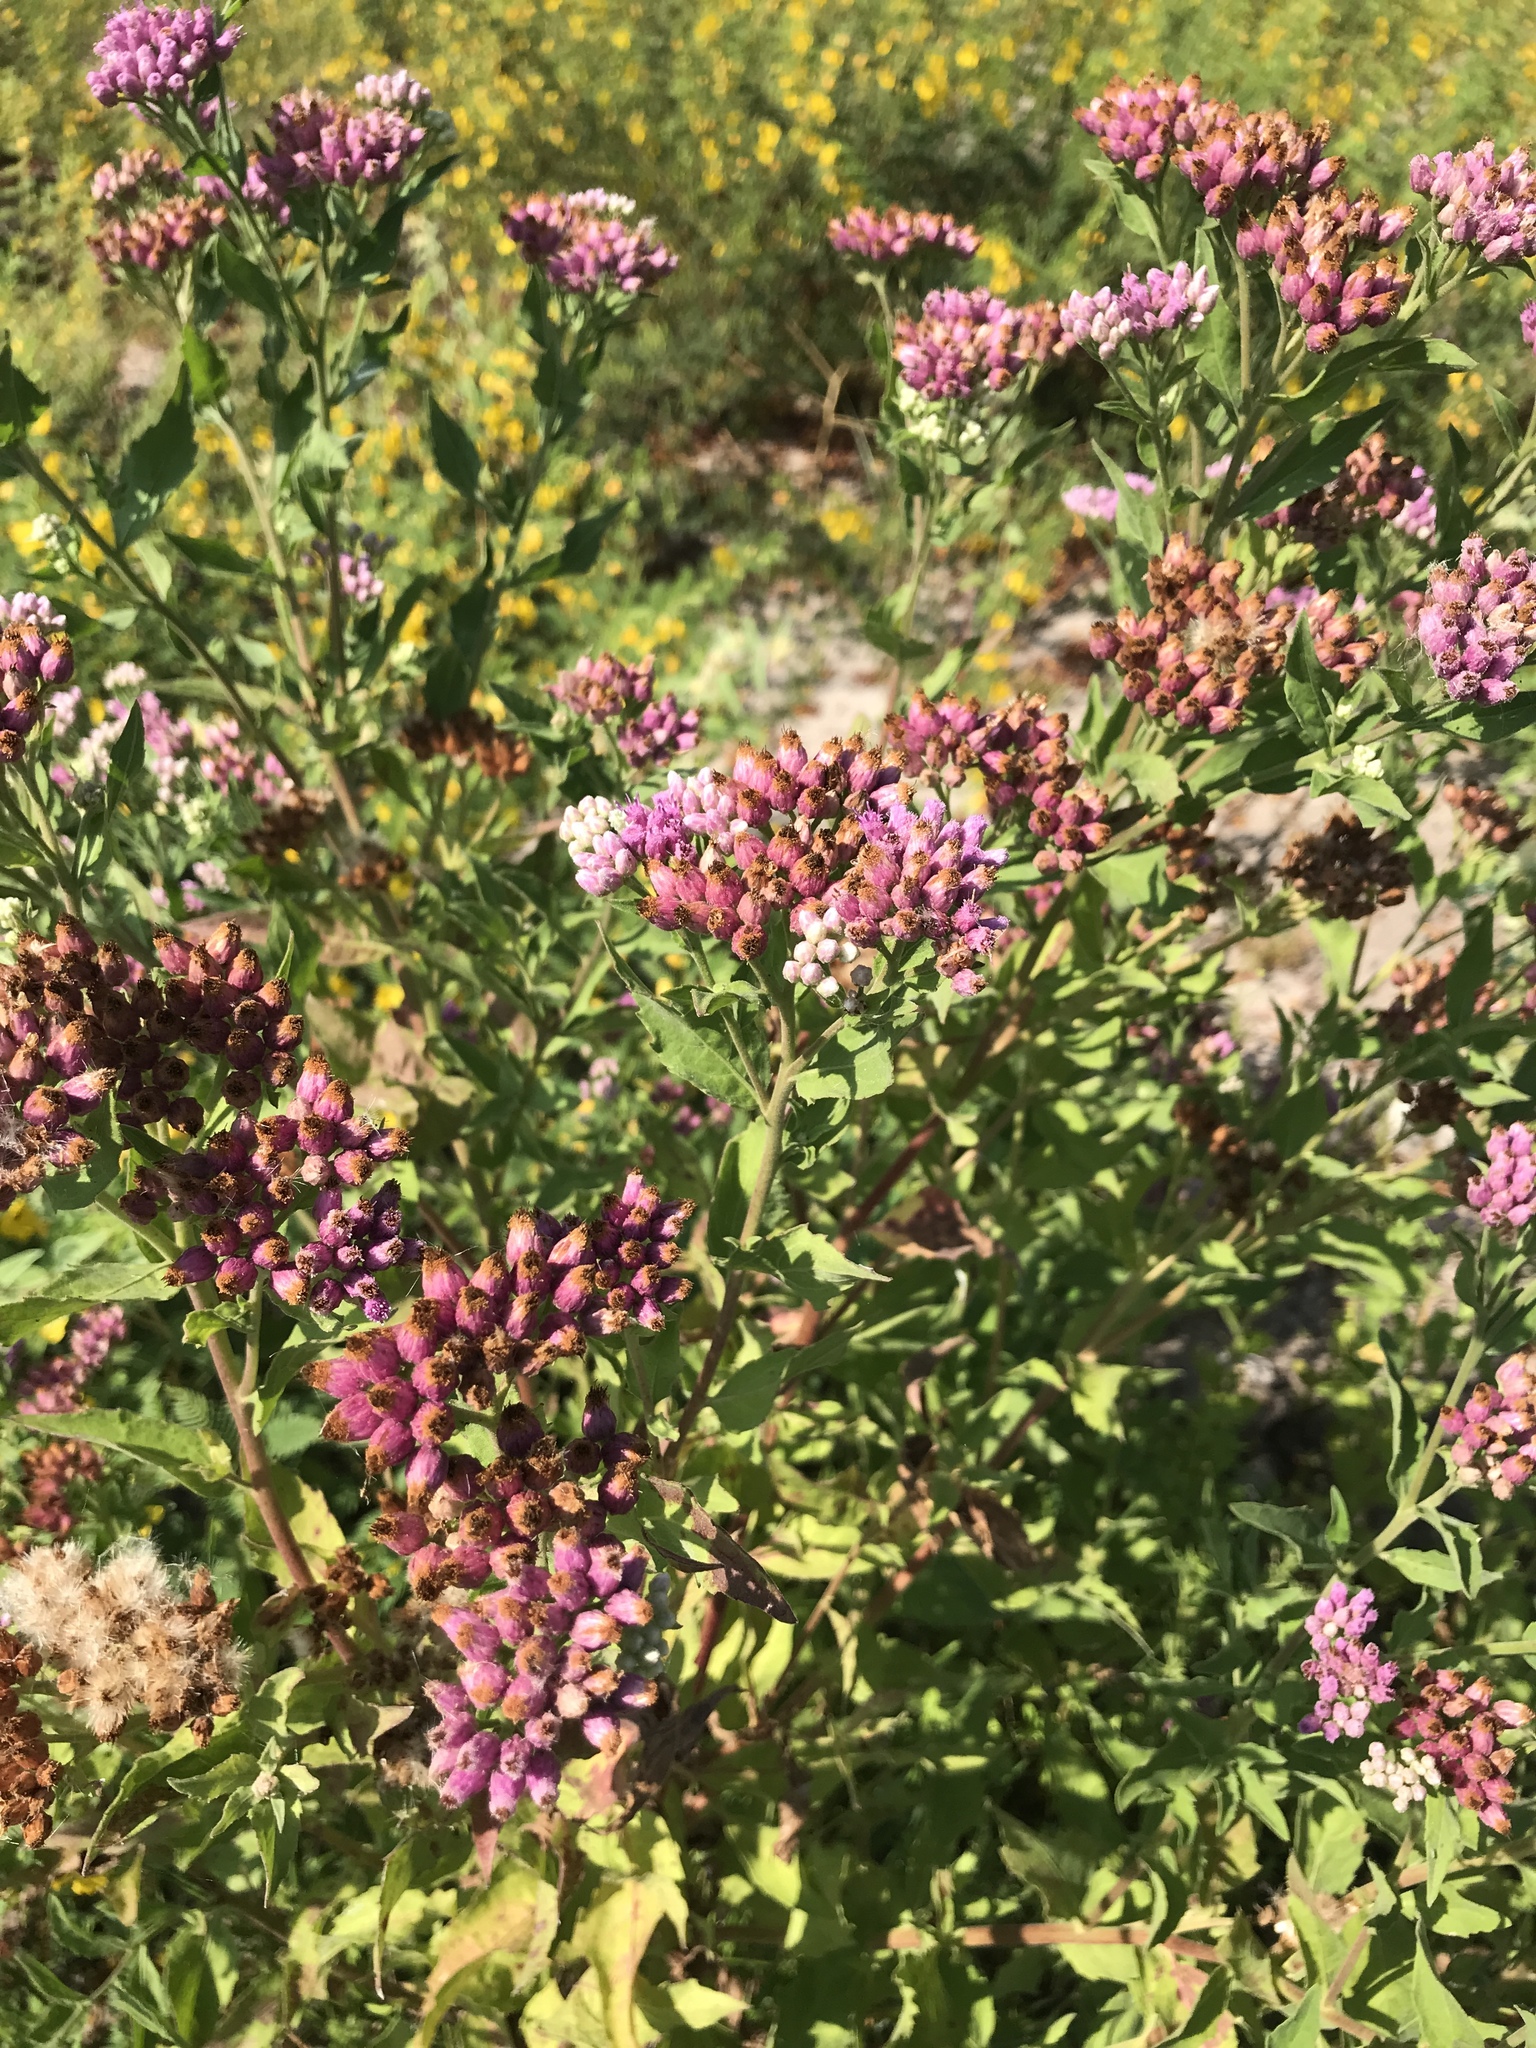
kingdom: Plantae
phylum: Tracheophyta
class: Magnoliopsida
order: Asterales
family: Asteraceae
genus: Pluchea
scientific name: Pluchea odorata
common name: Saltmarsh fleabane
